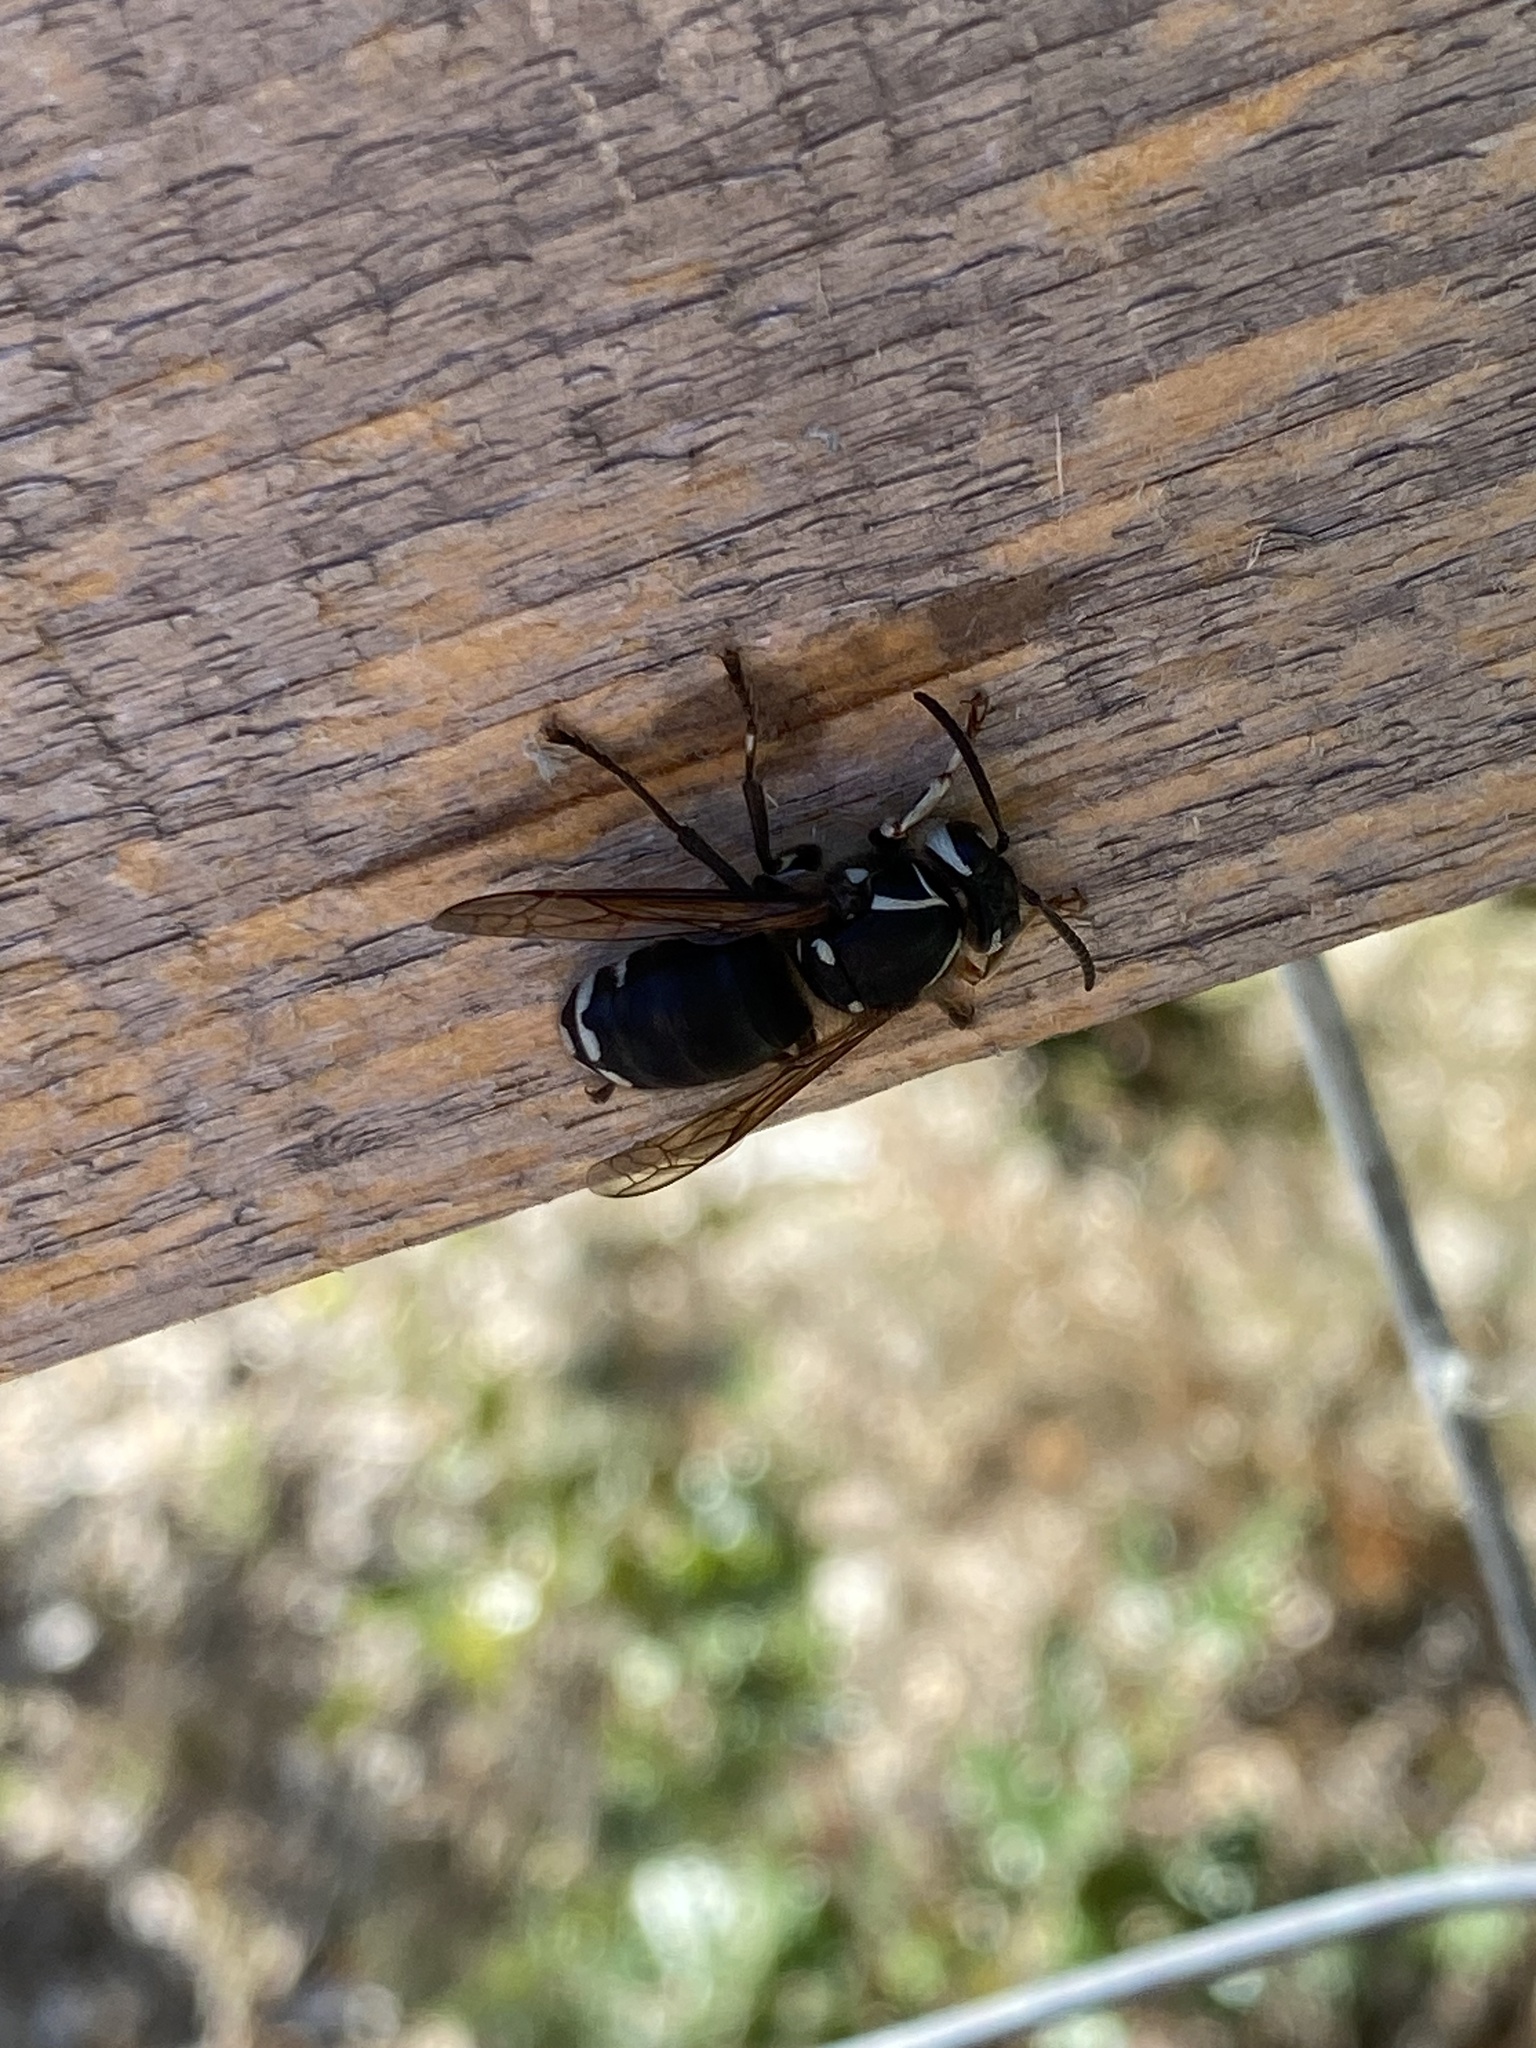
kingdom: Animalia
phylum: Arthropoda
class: Insecta
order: Hymenoptera
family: Vespidae
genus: Dolichovespula
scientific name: Dolichovespula maculata
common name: Bald-faced hornet
